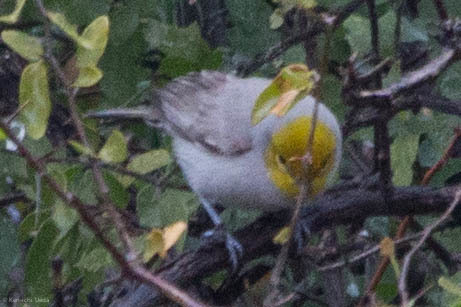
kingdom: Animalia
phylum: Chordata
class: Aves
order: Passeriformes
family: Remizidae
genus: Auriparus
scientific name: Auriparus flaviceps
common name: Verdin
